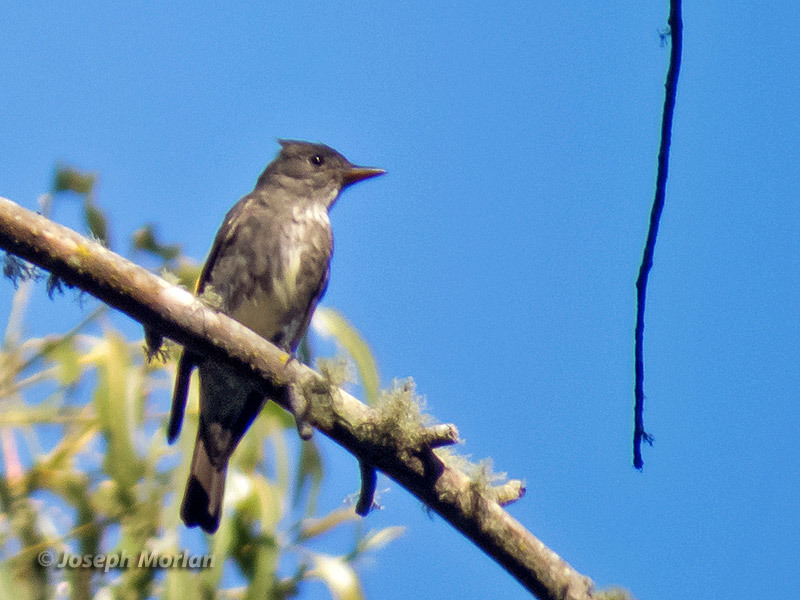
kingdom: Animalia
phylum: Chordata
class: Aves
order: Passeriformes
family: Tyrannidae
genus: Contopus
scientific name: Contopus cooperi
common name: Olive-sided flycatcher
